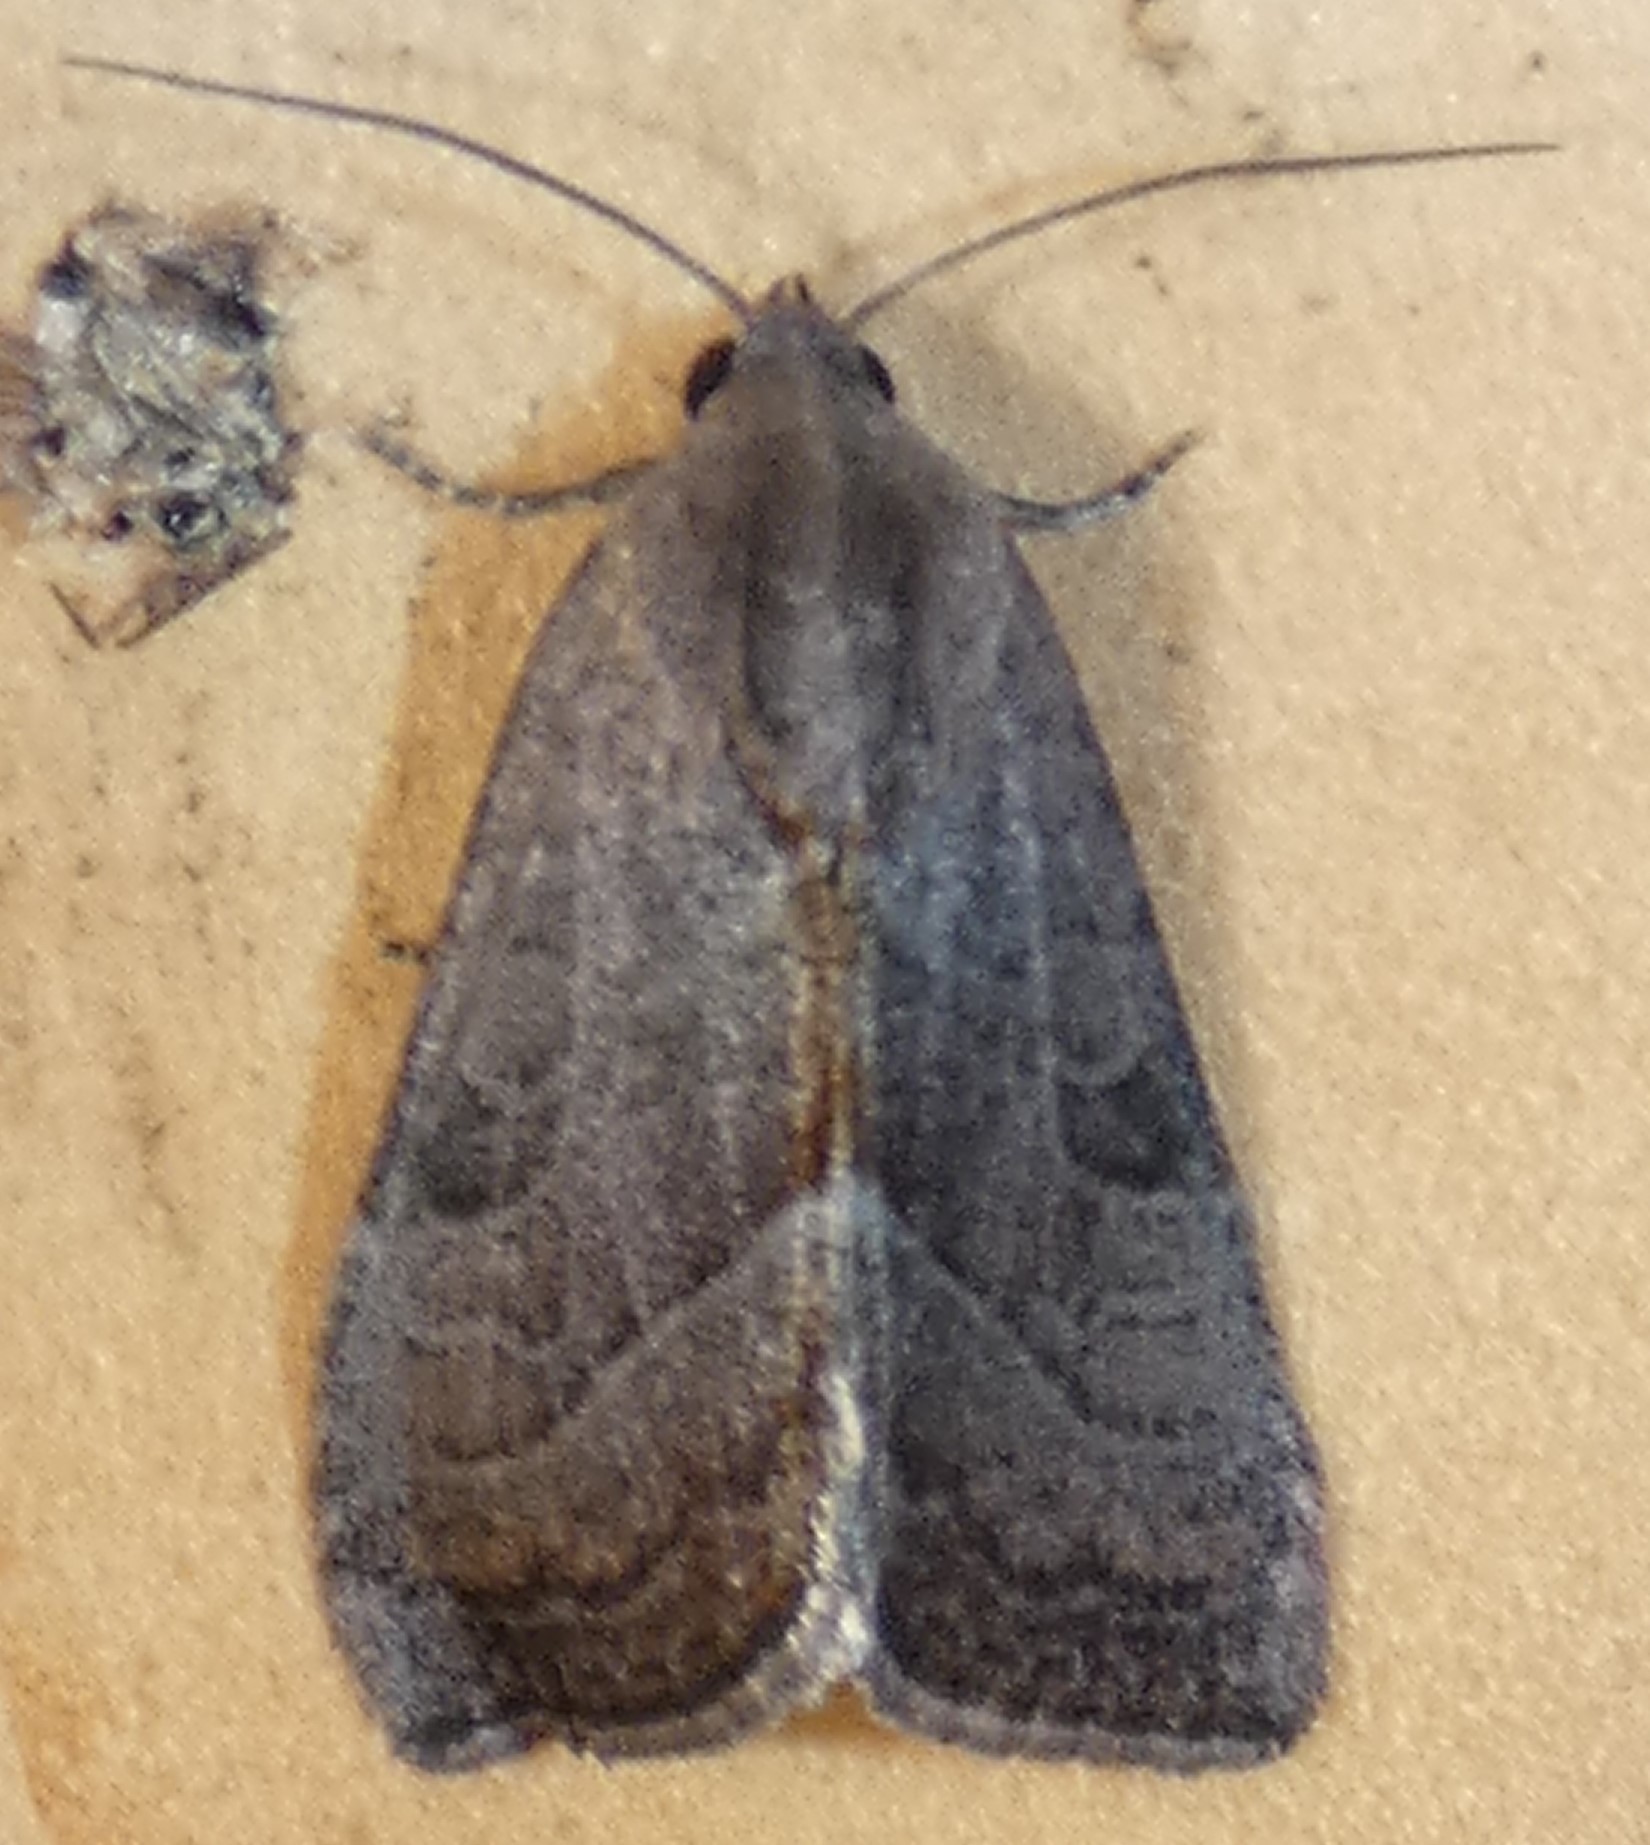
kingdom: Animalia
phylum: Arthropoda
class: Insecta
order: Lepidoptera
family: Noctuidae
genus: Galgula
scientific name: Galgula partita
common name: Wedgeling
